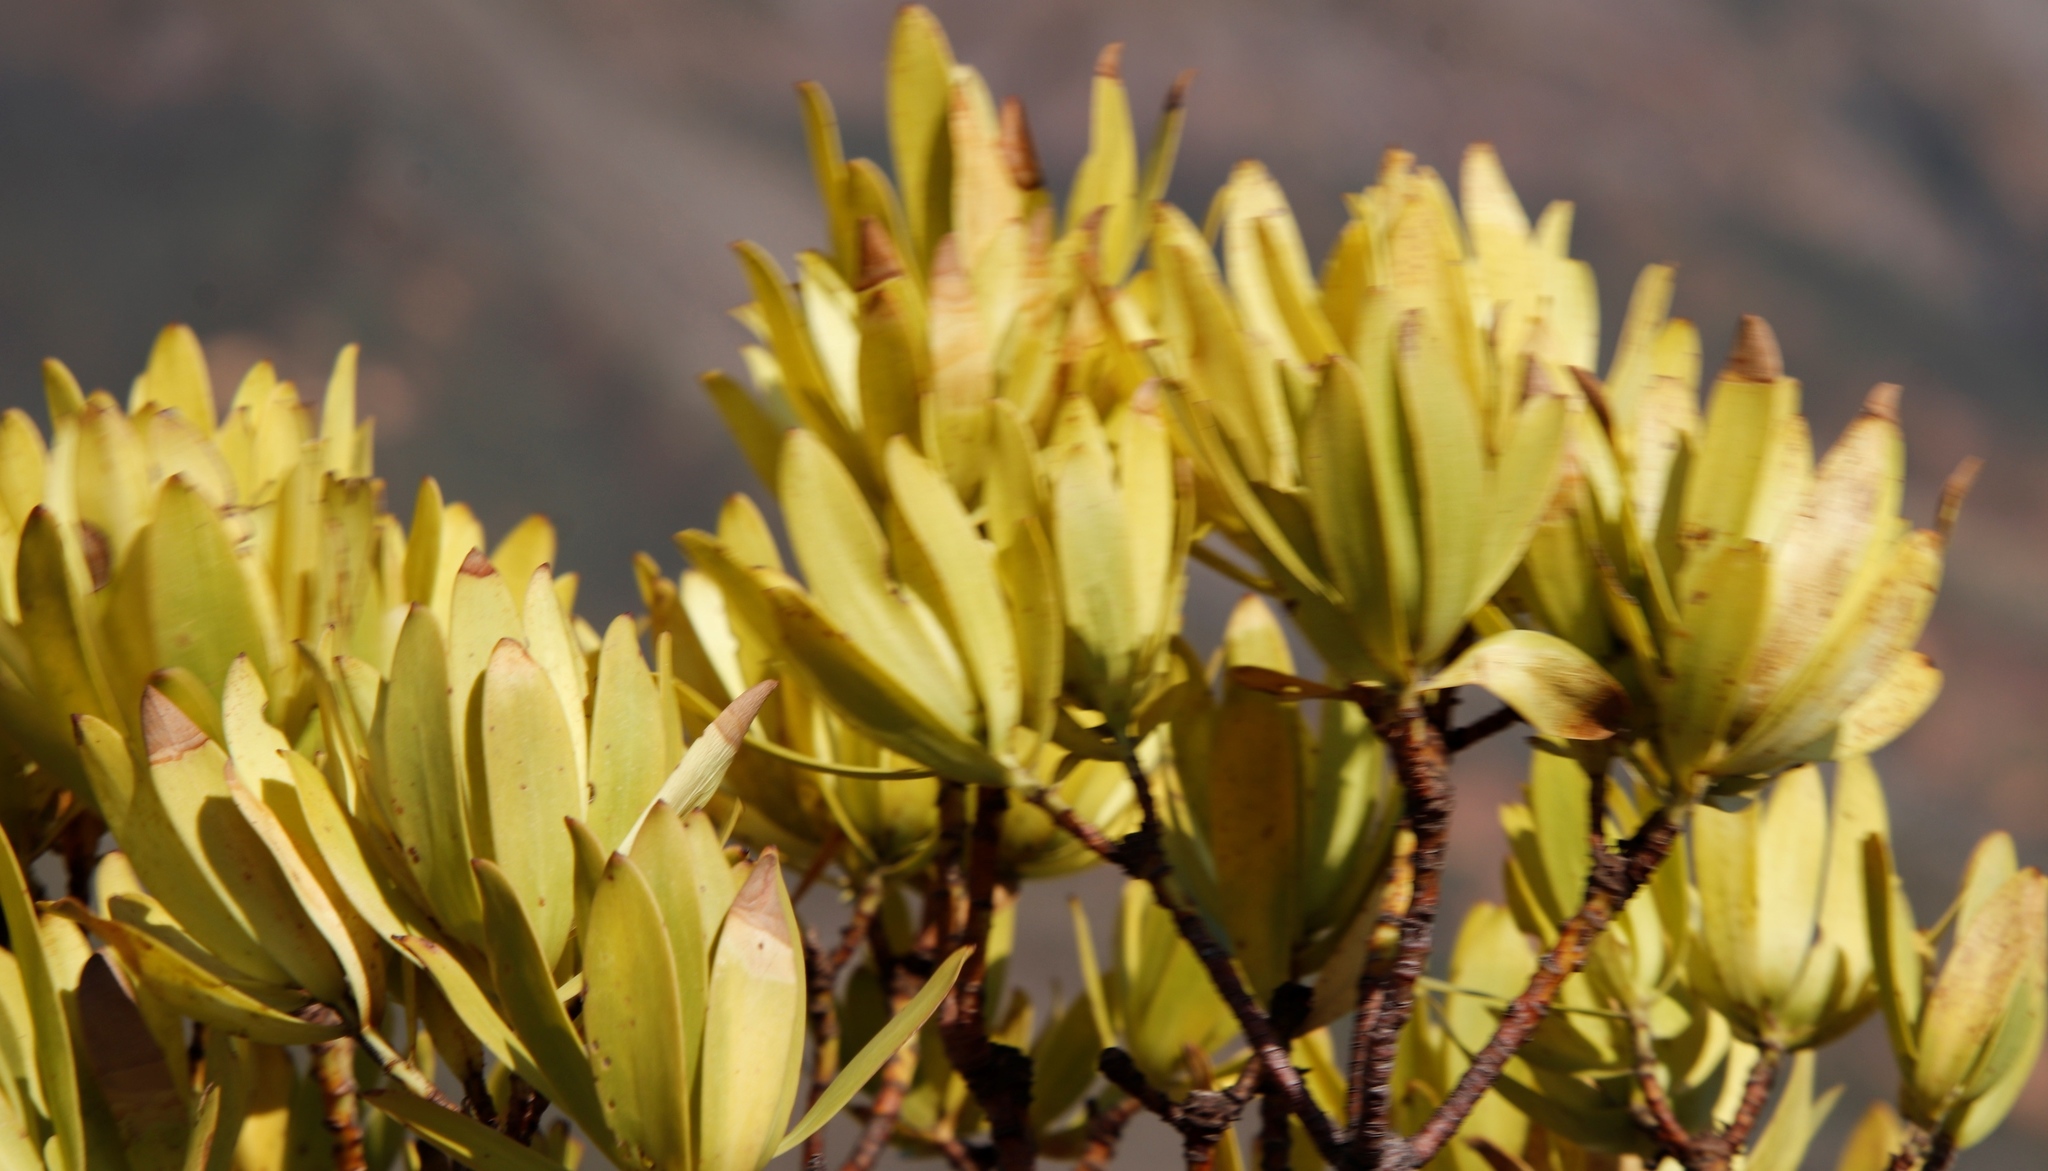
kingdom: Plantae
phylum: Tracheophyta
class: Magnoliopsida
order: Proteales
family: Proteaceae
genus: Leucadendron
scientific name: Leucadendron laureolum
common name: Golden sunshinebush
